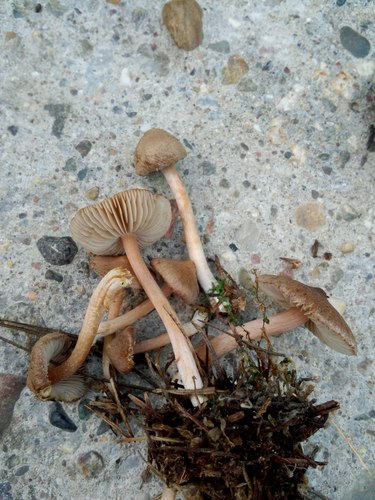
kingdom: Fungi
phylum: Basidiomycota
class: Agaricomycetes
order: Agaricales
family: Inocybaceae
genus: Inocybe
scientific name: Inocybe
